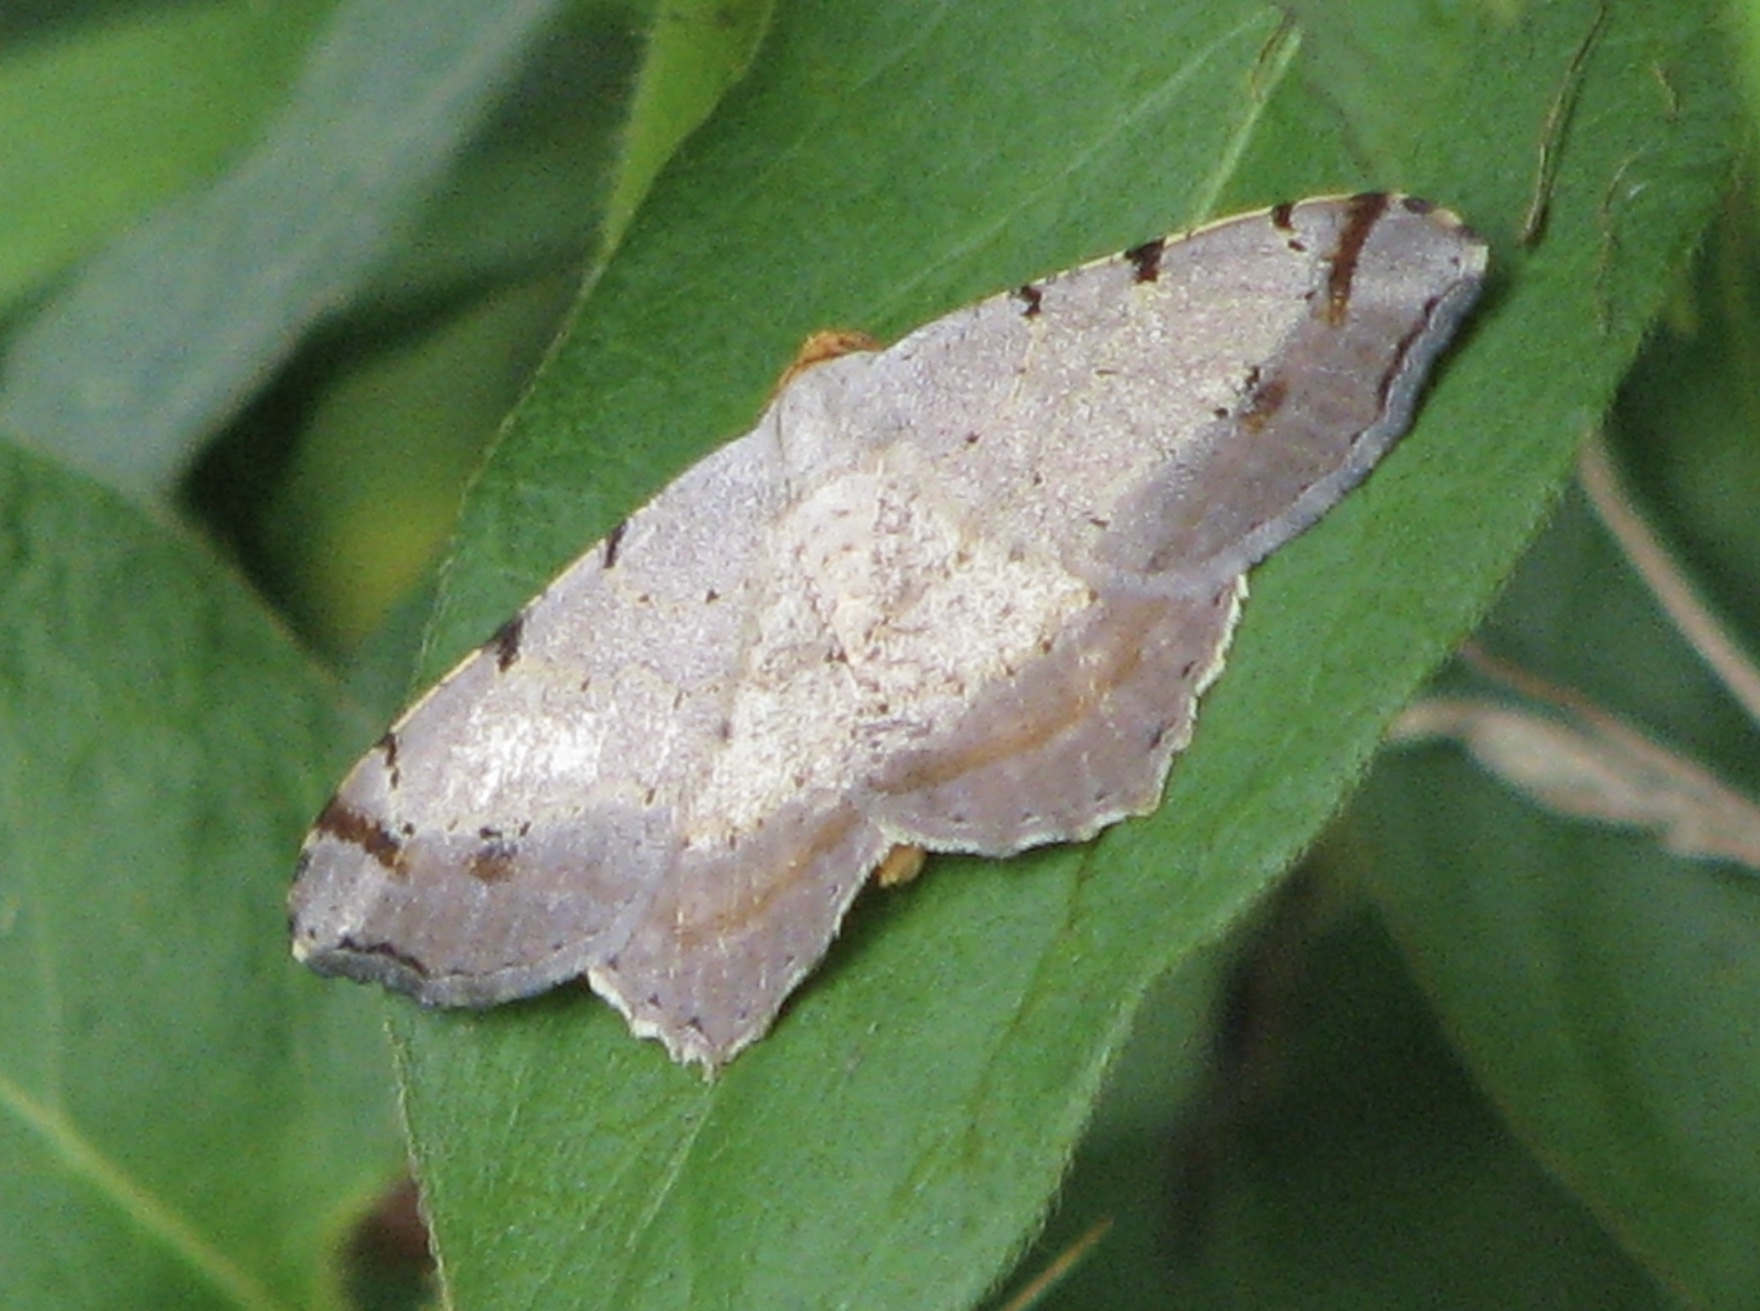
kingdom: Animalia
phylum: Arthropoda
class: Insecta
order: Lepidoptera
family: Geometridae
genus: Macaria
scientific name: Macaria bicolorata
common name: Dingy angle
